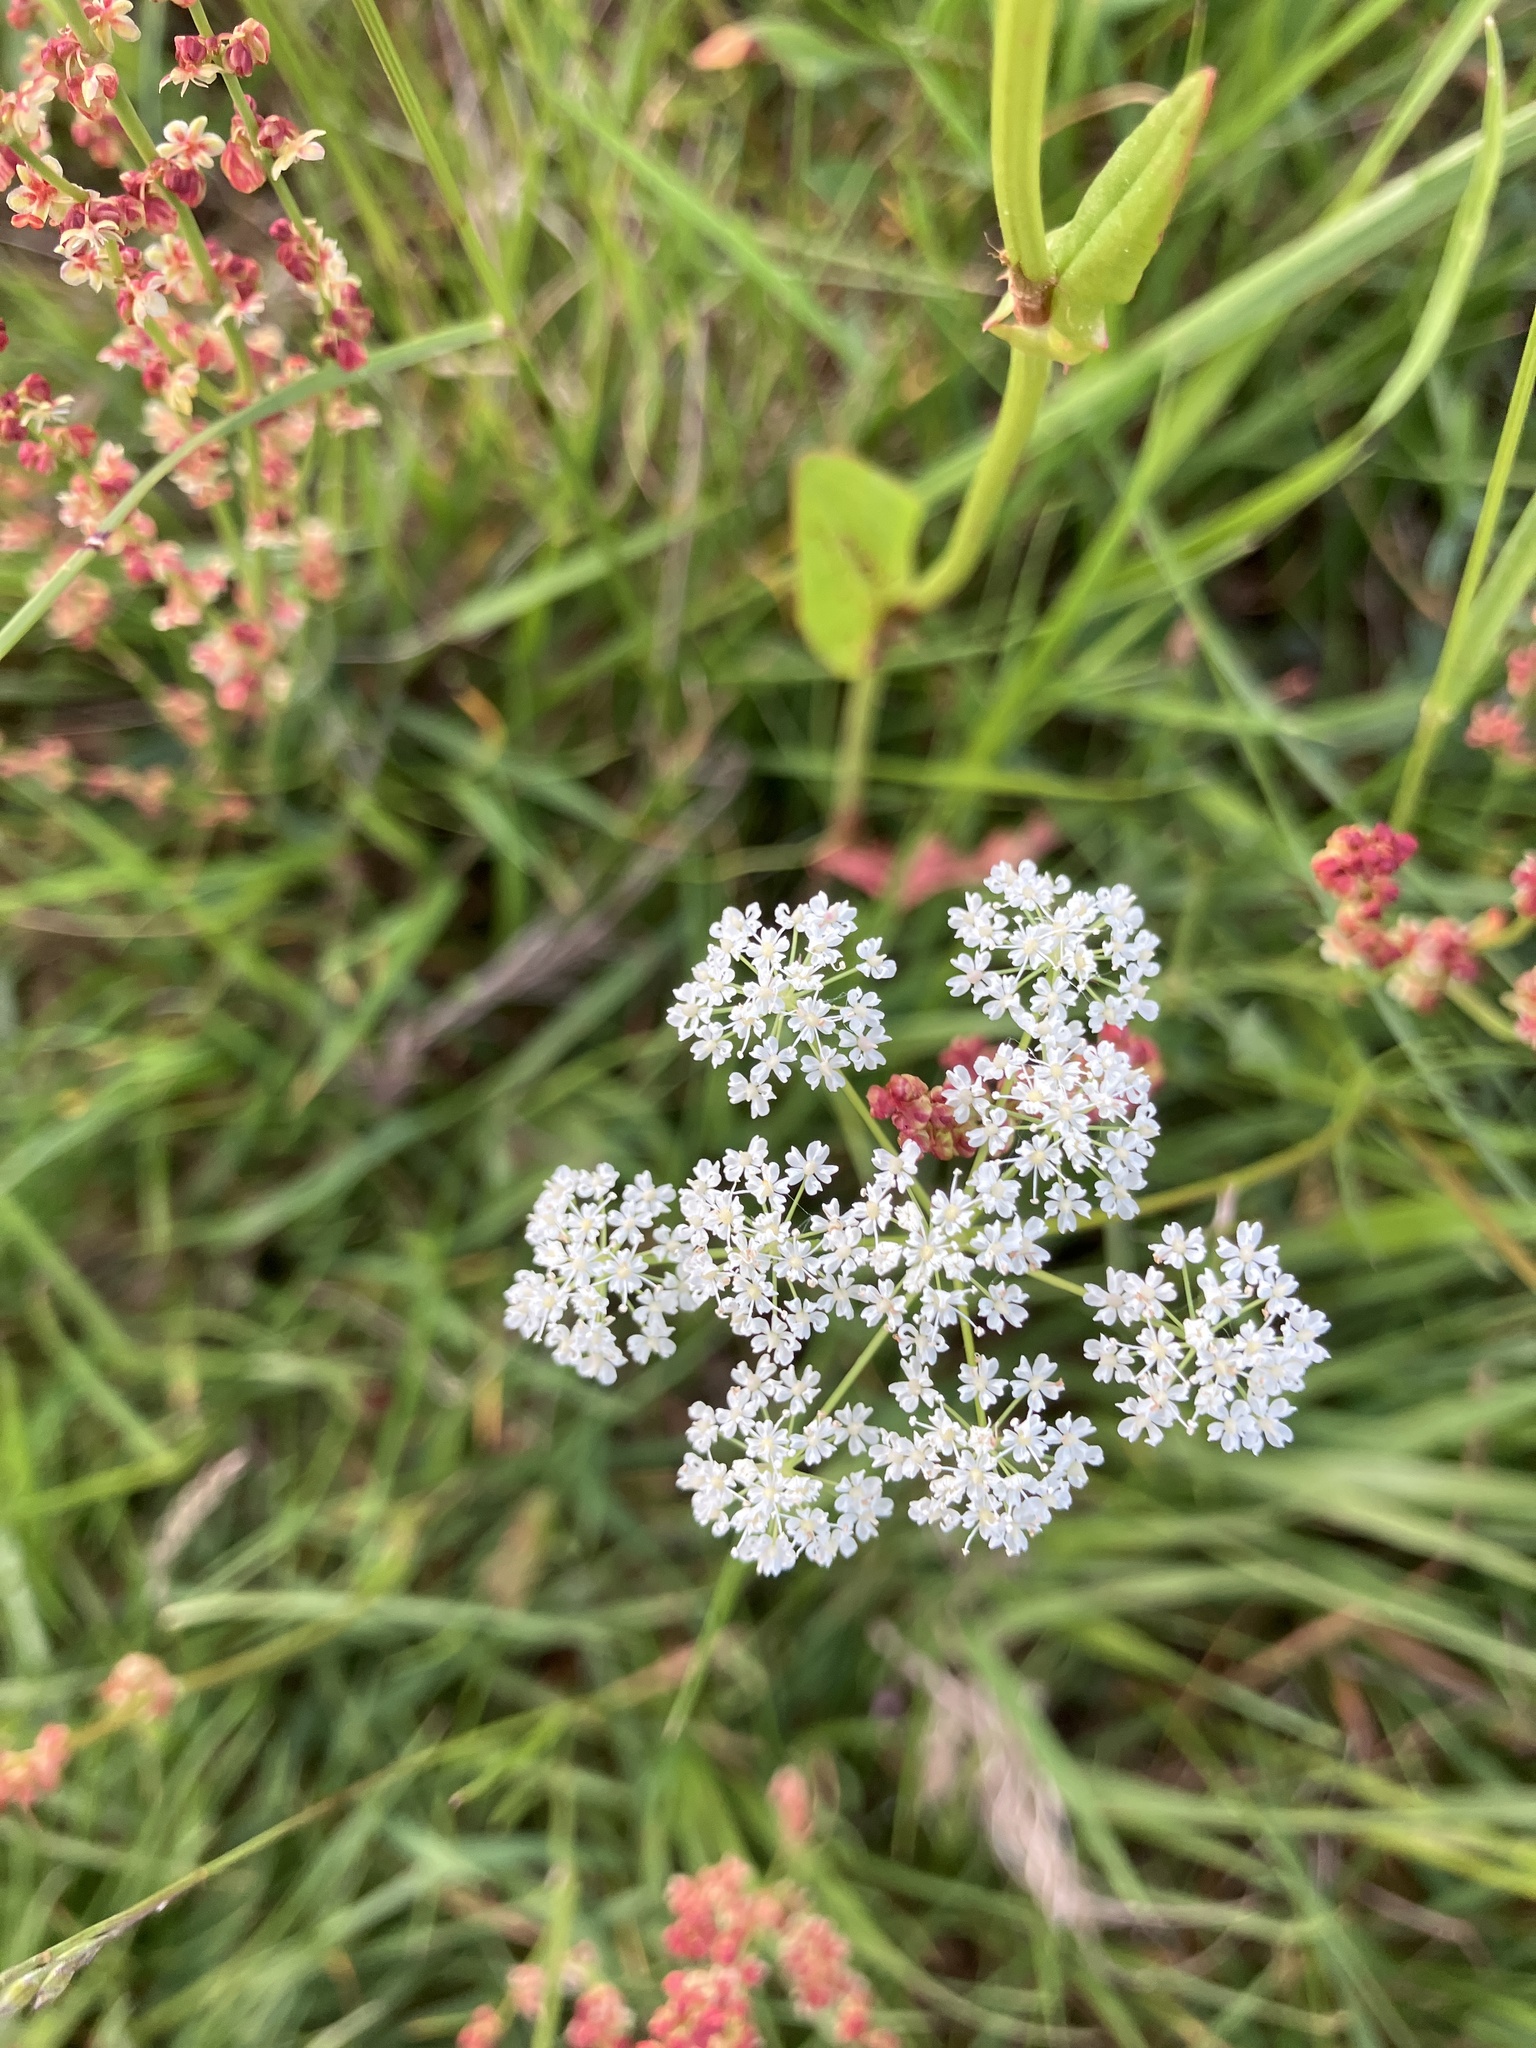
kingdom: Plantae
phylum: Tracheophyta
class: Magnoliopsida
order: Apiales
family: Apiaceae
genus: Conopodium
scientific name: Conopodium majus
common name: Pignut
